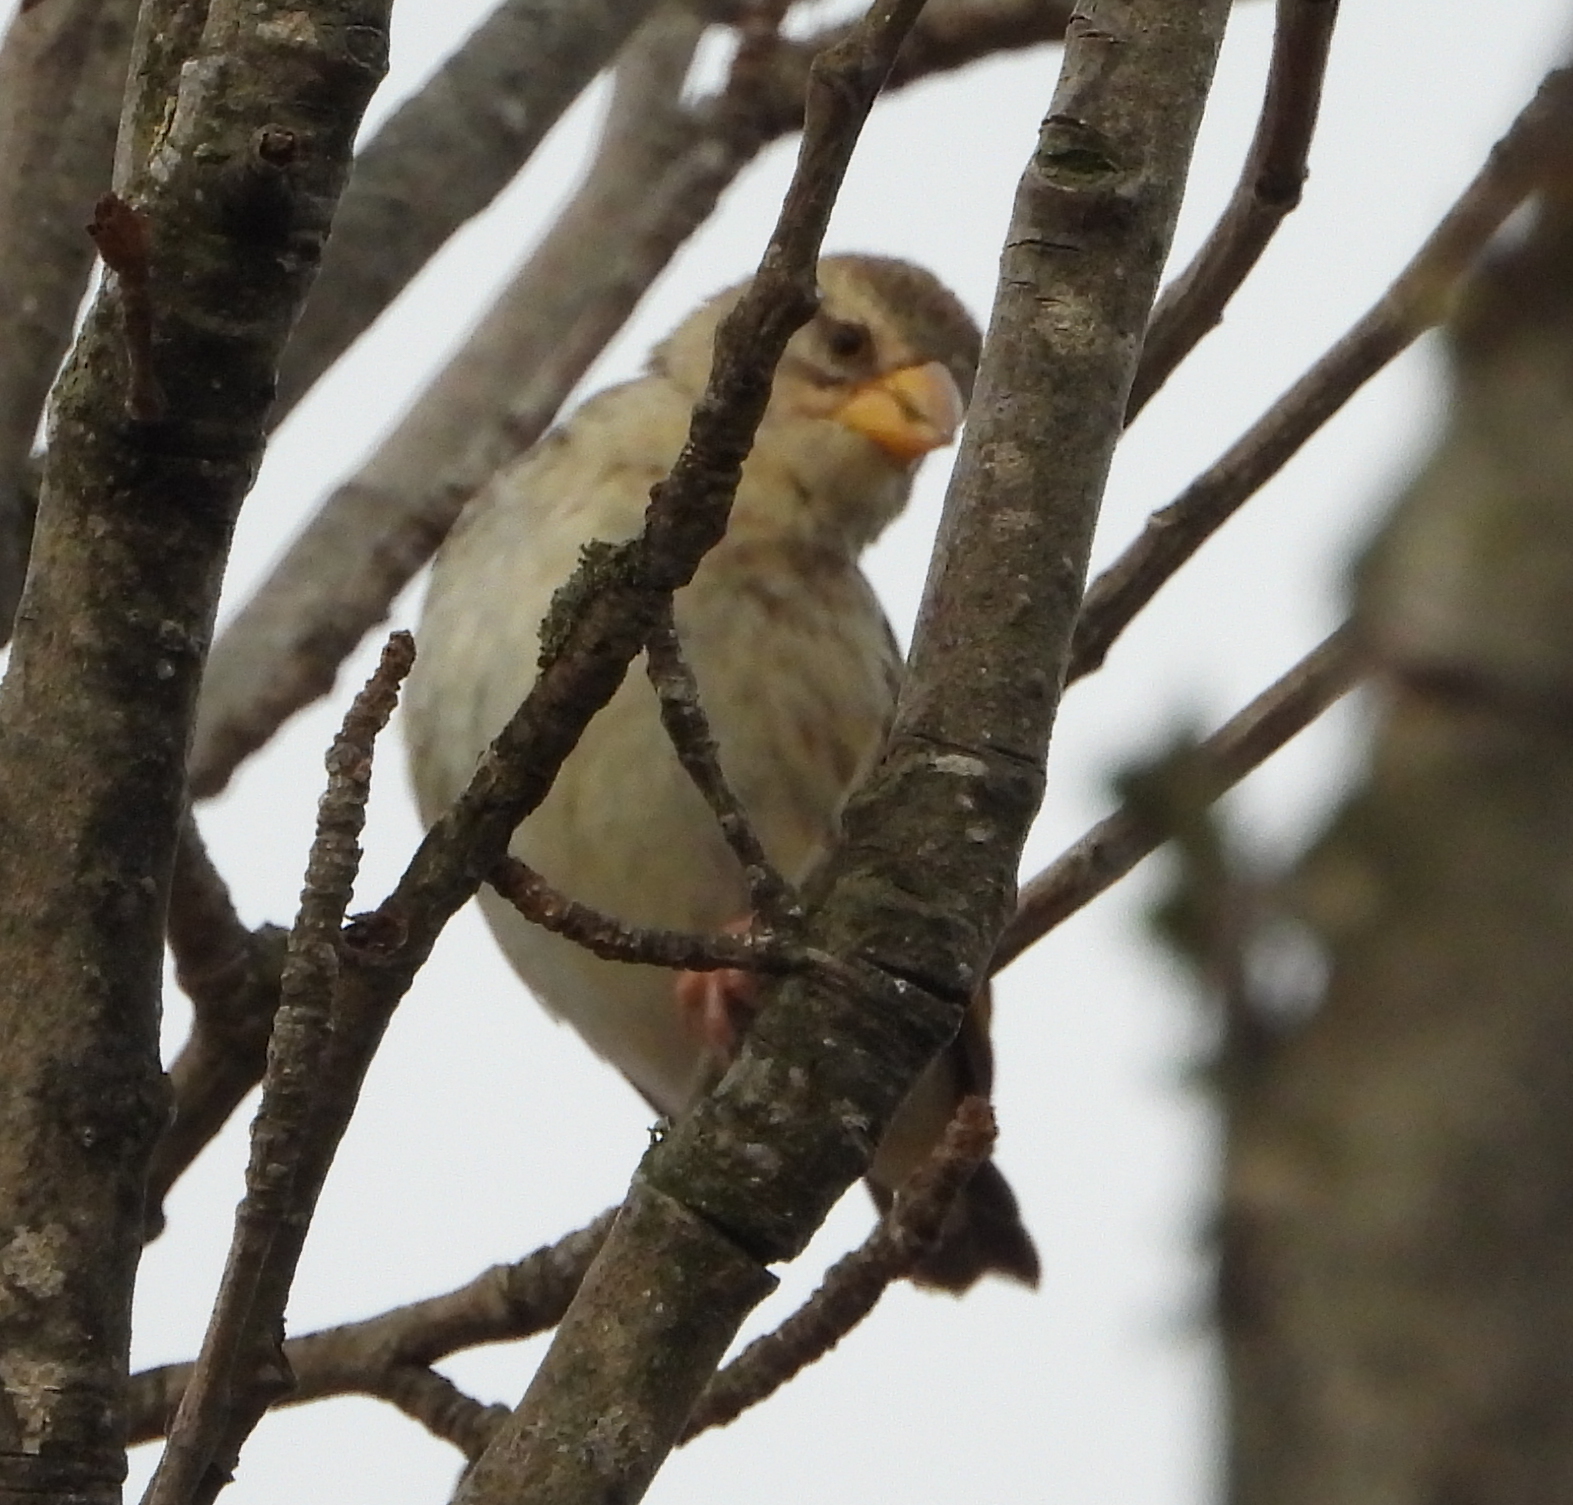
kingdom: Animalia
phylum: Chordata
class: Aves
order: Passeriformes
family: Ploceidae
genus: Quelea
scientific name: Quelea quelea
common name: Red-billed quelea
